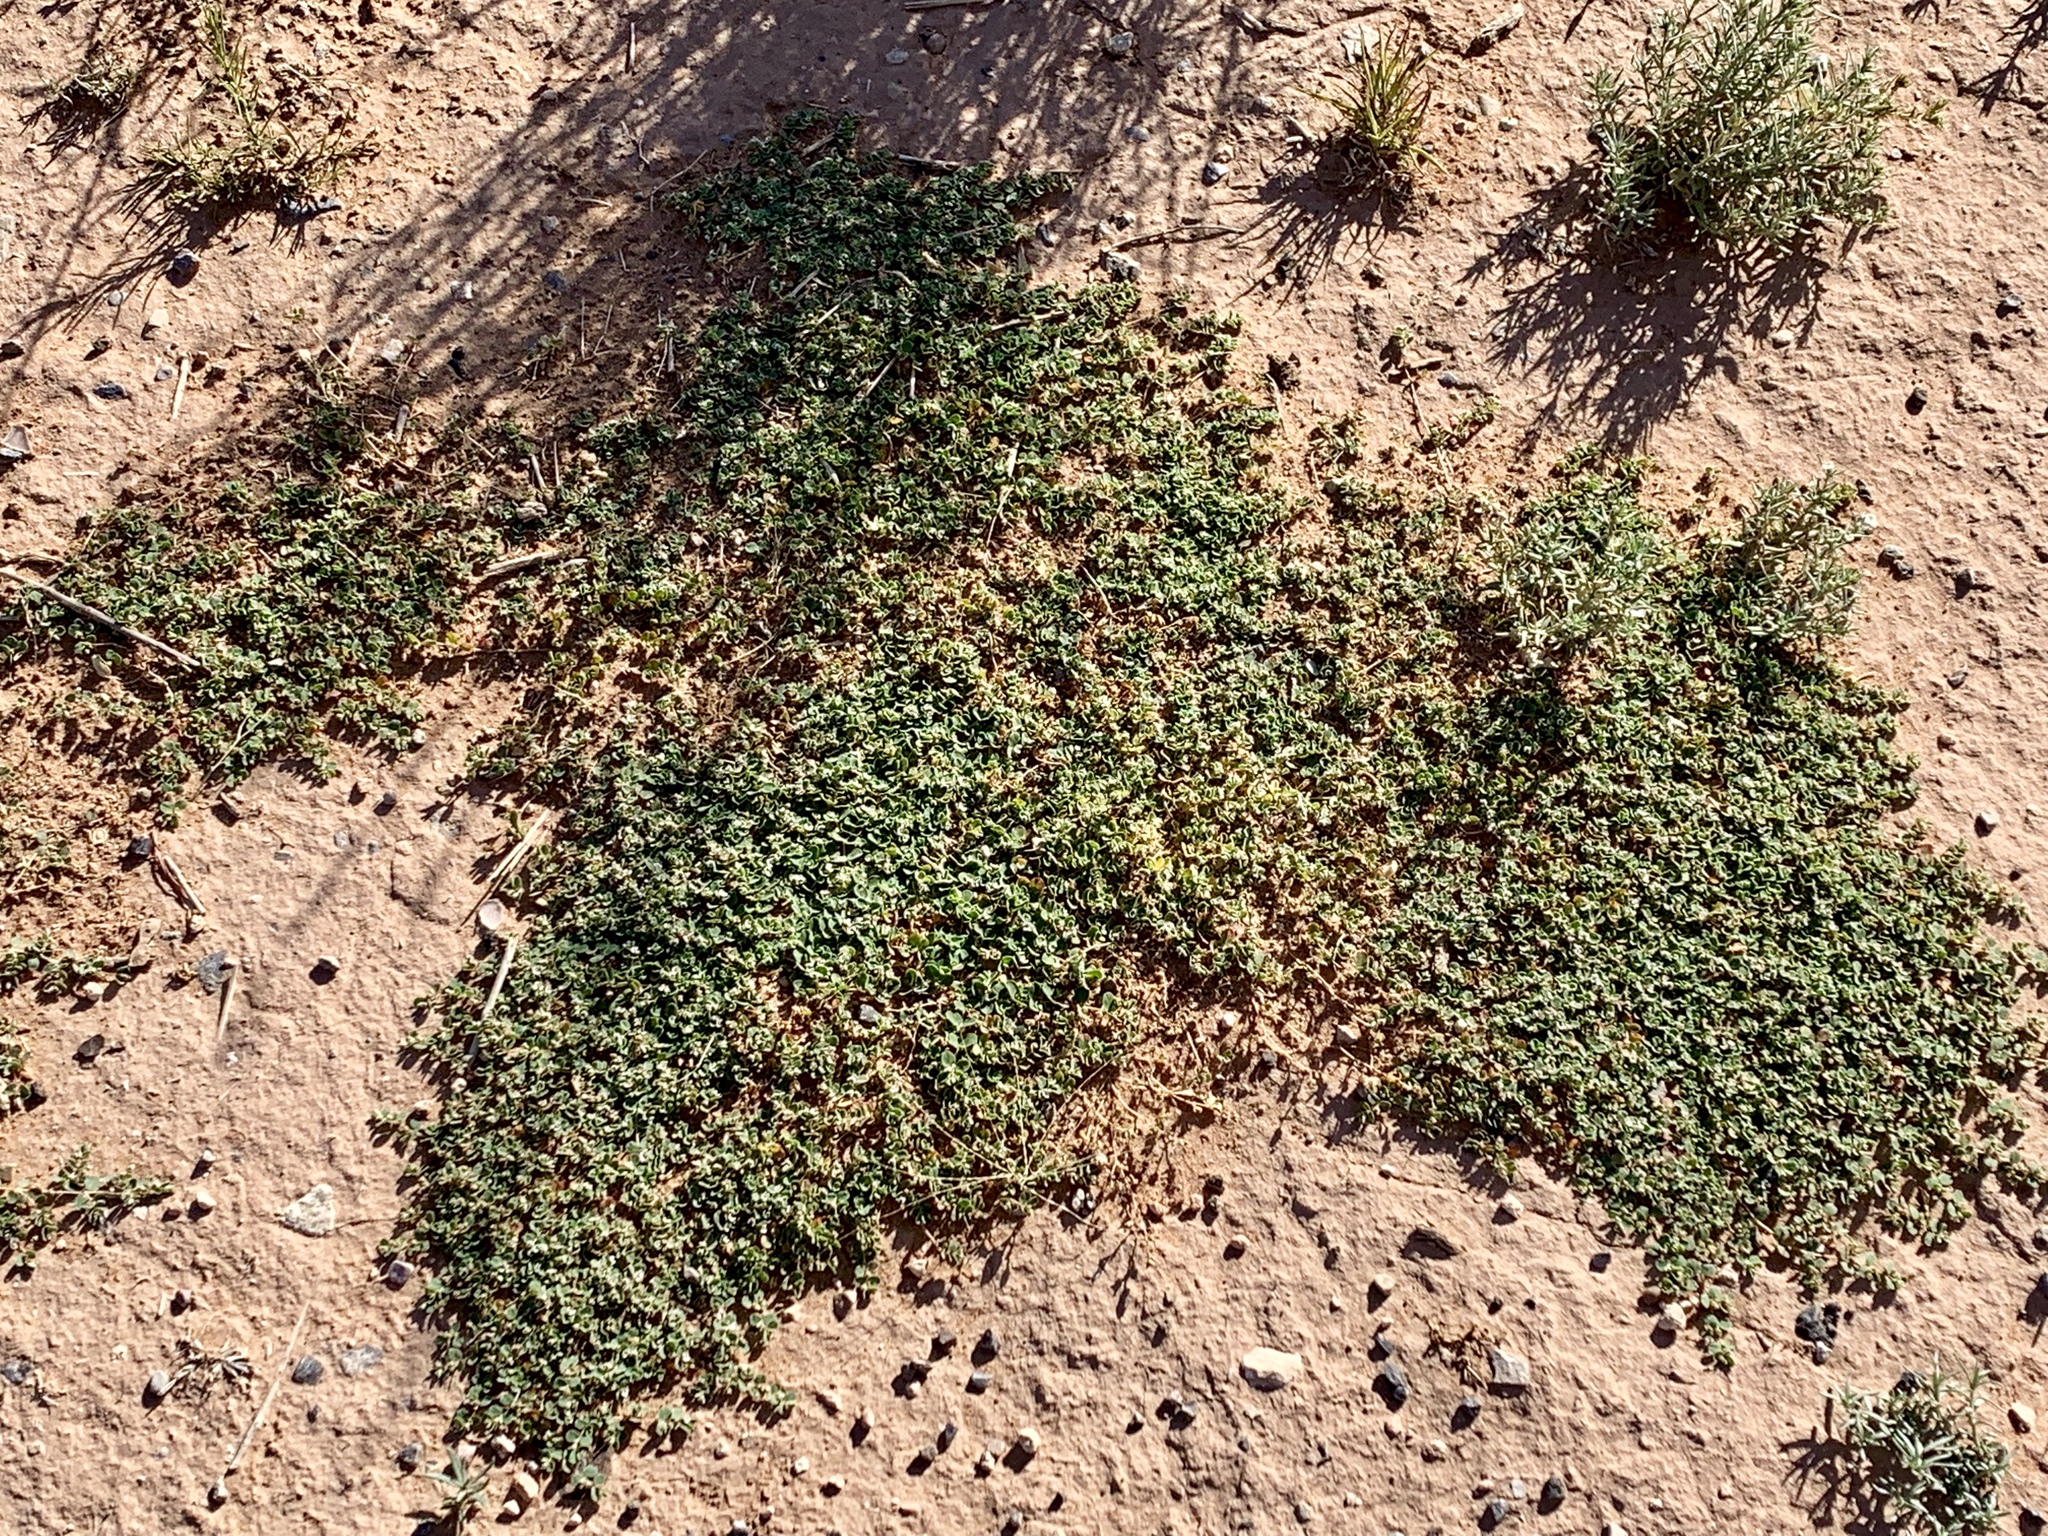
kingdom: Plantae
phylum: Tracheophyta
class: Magnoliopsida
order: Malpighiales
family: Euphorbiaceae
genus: Euphorbia
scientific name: Euphorbia albomarginata
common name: Whitemargin sandmat
